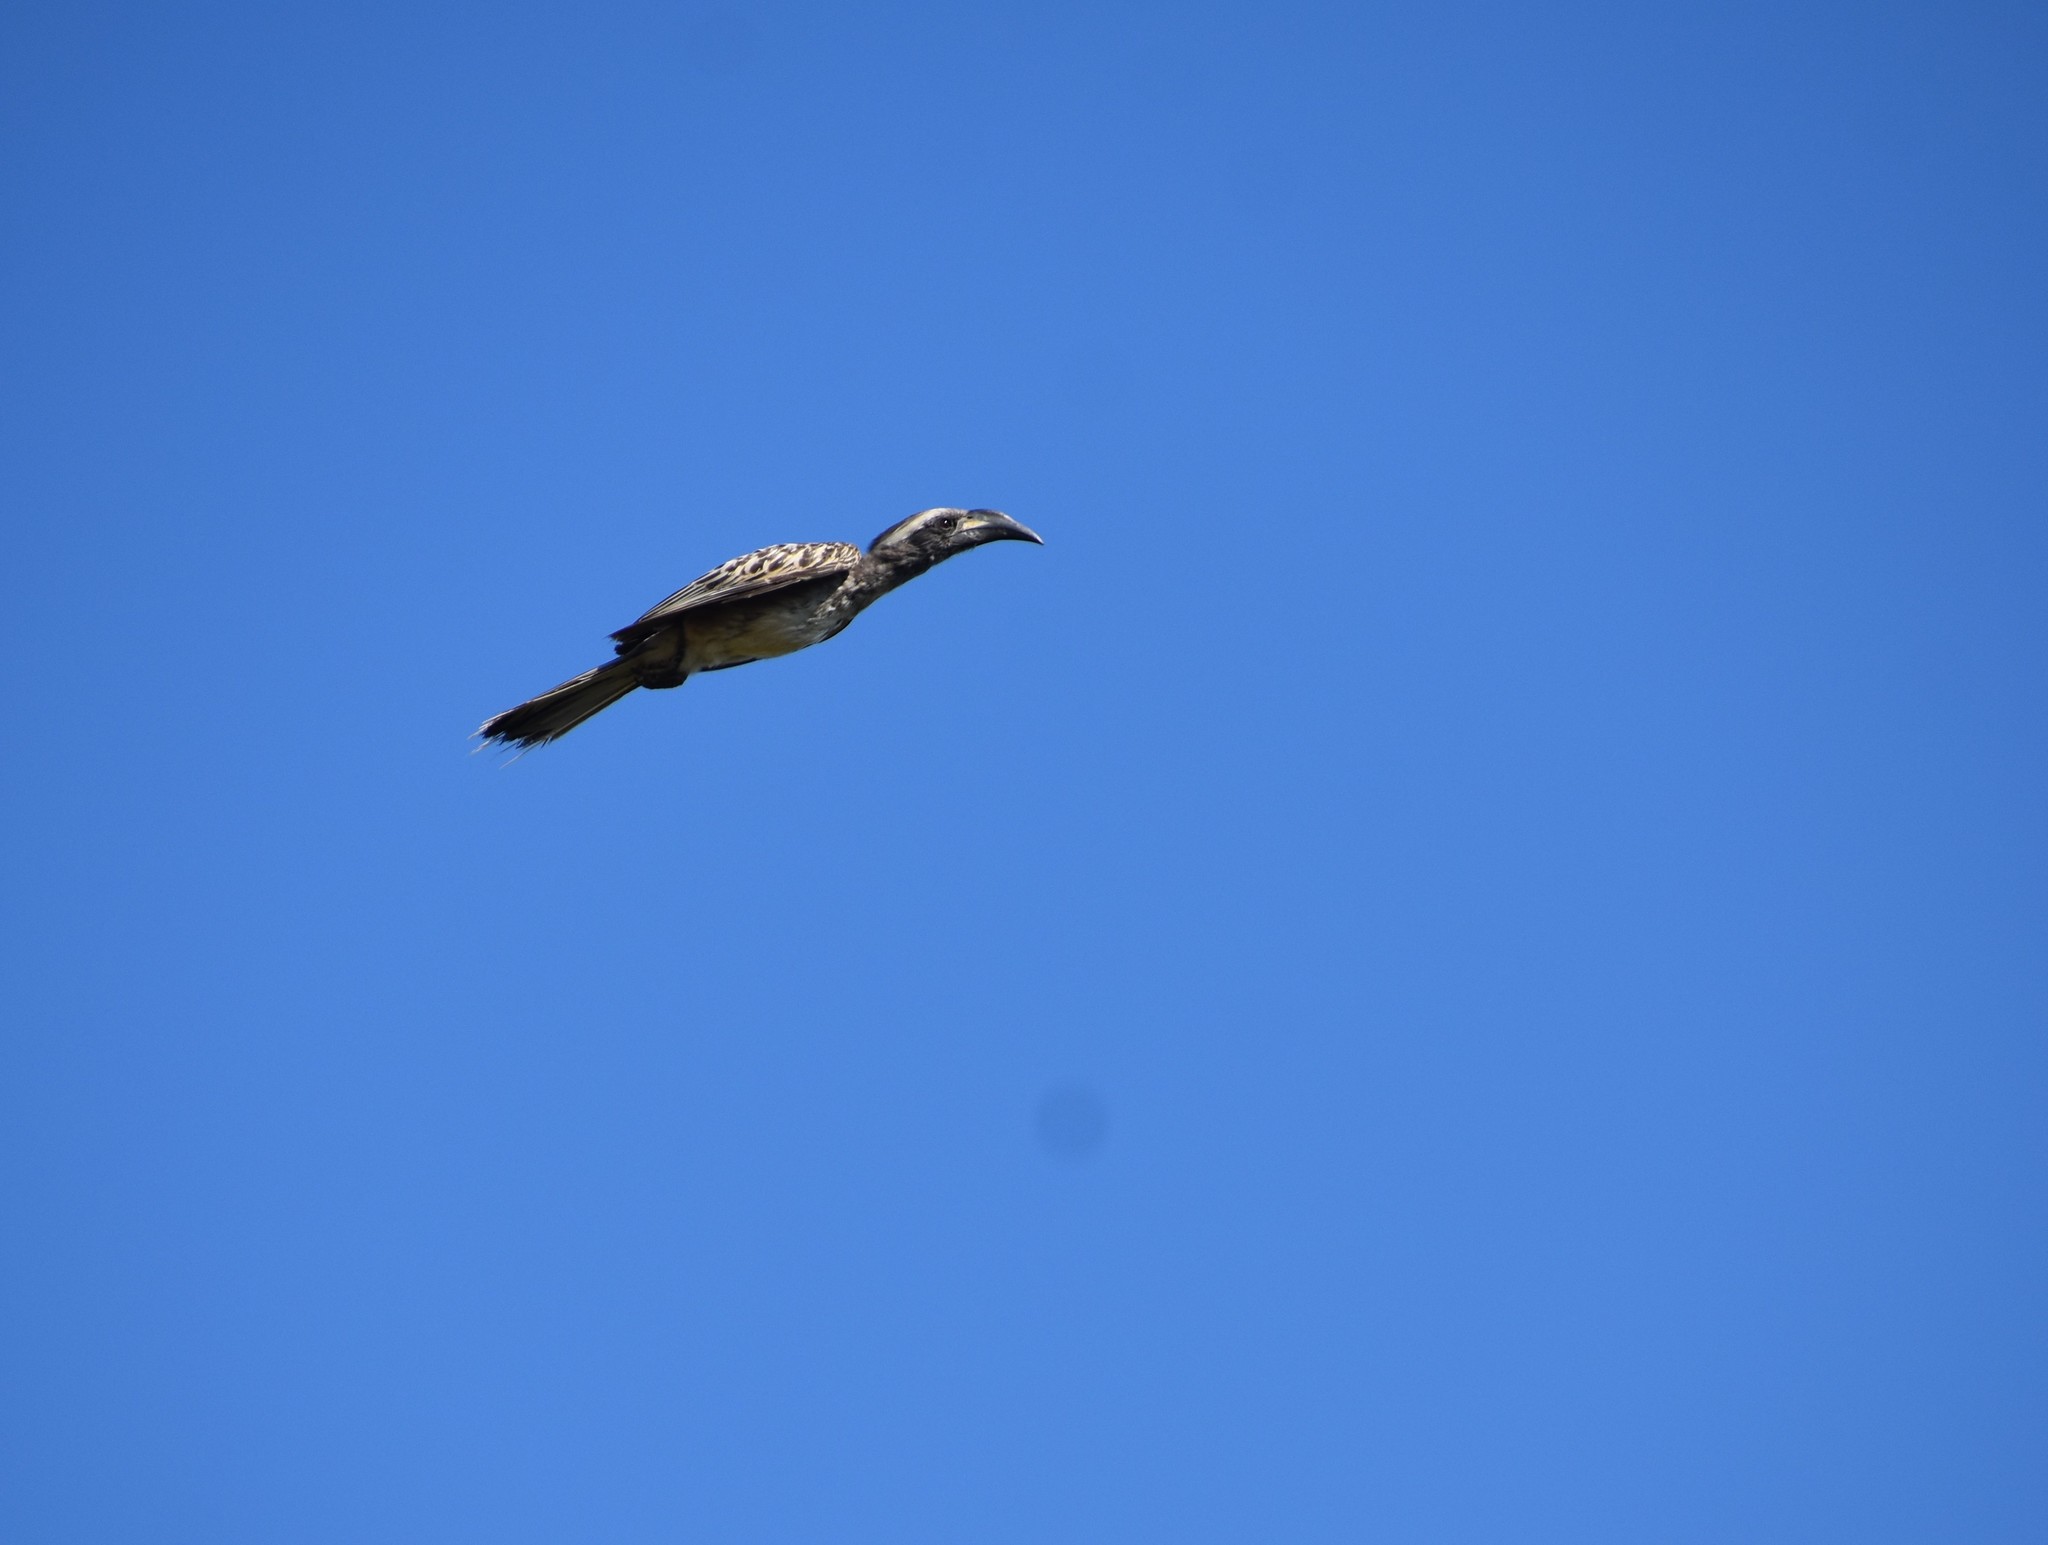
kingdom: Animalia
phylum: Chordata
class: Aves
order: Bucerotiformes
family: Bucerotidae
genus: Lophoceros
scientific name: Lophoceros nasutus
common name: African grey hornbill
